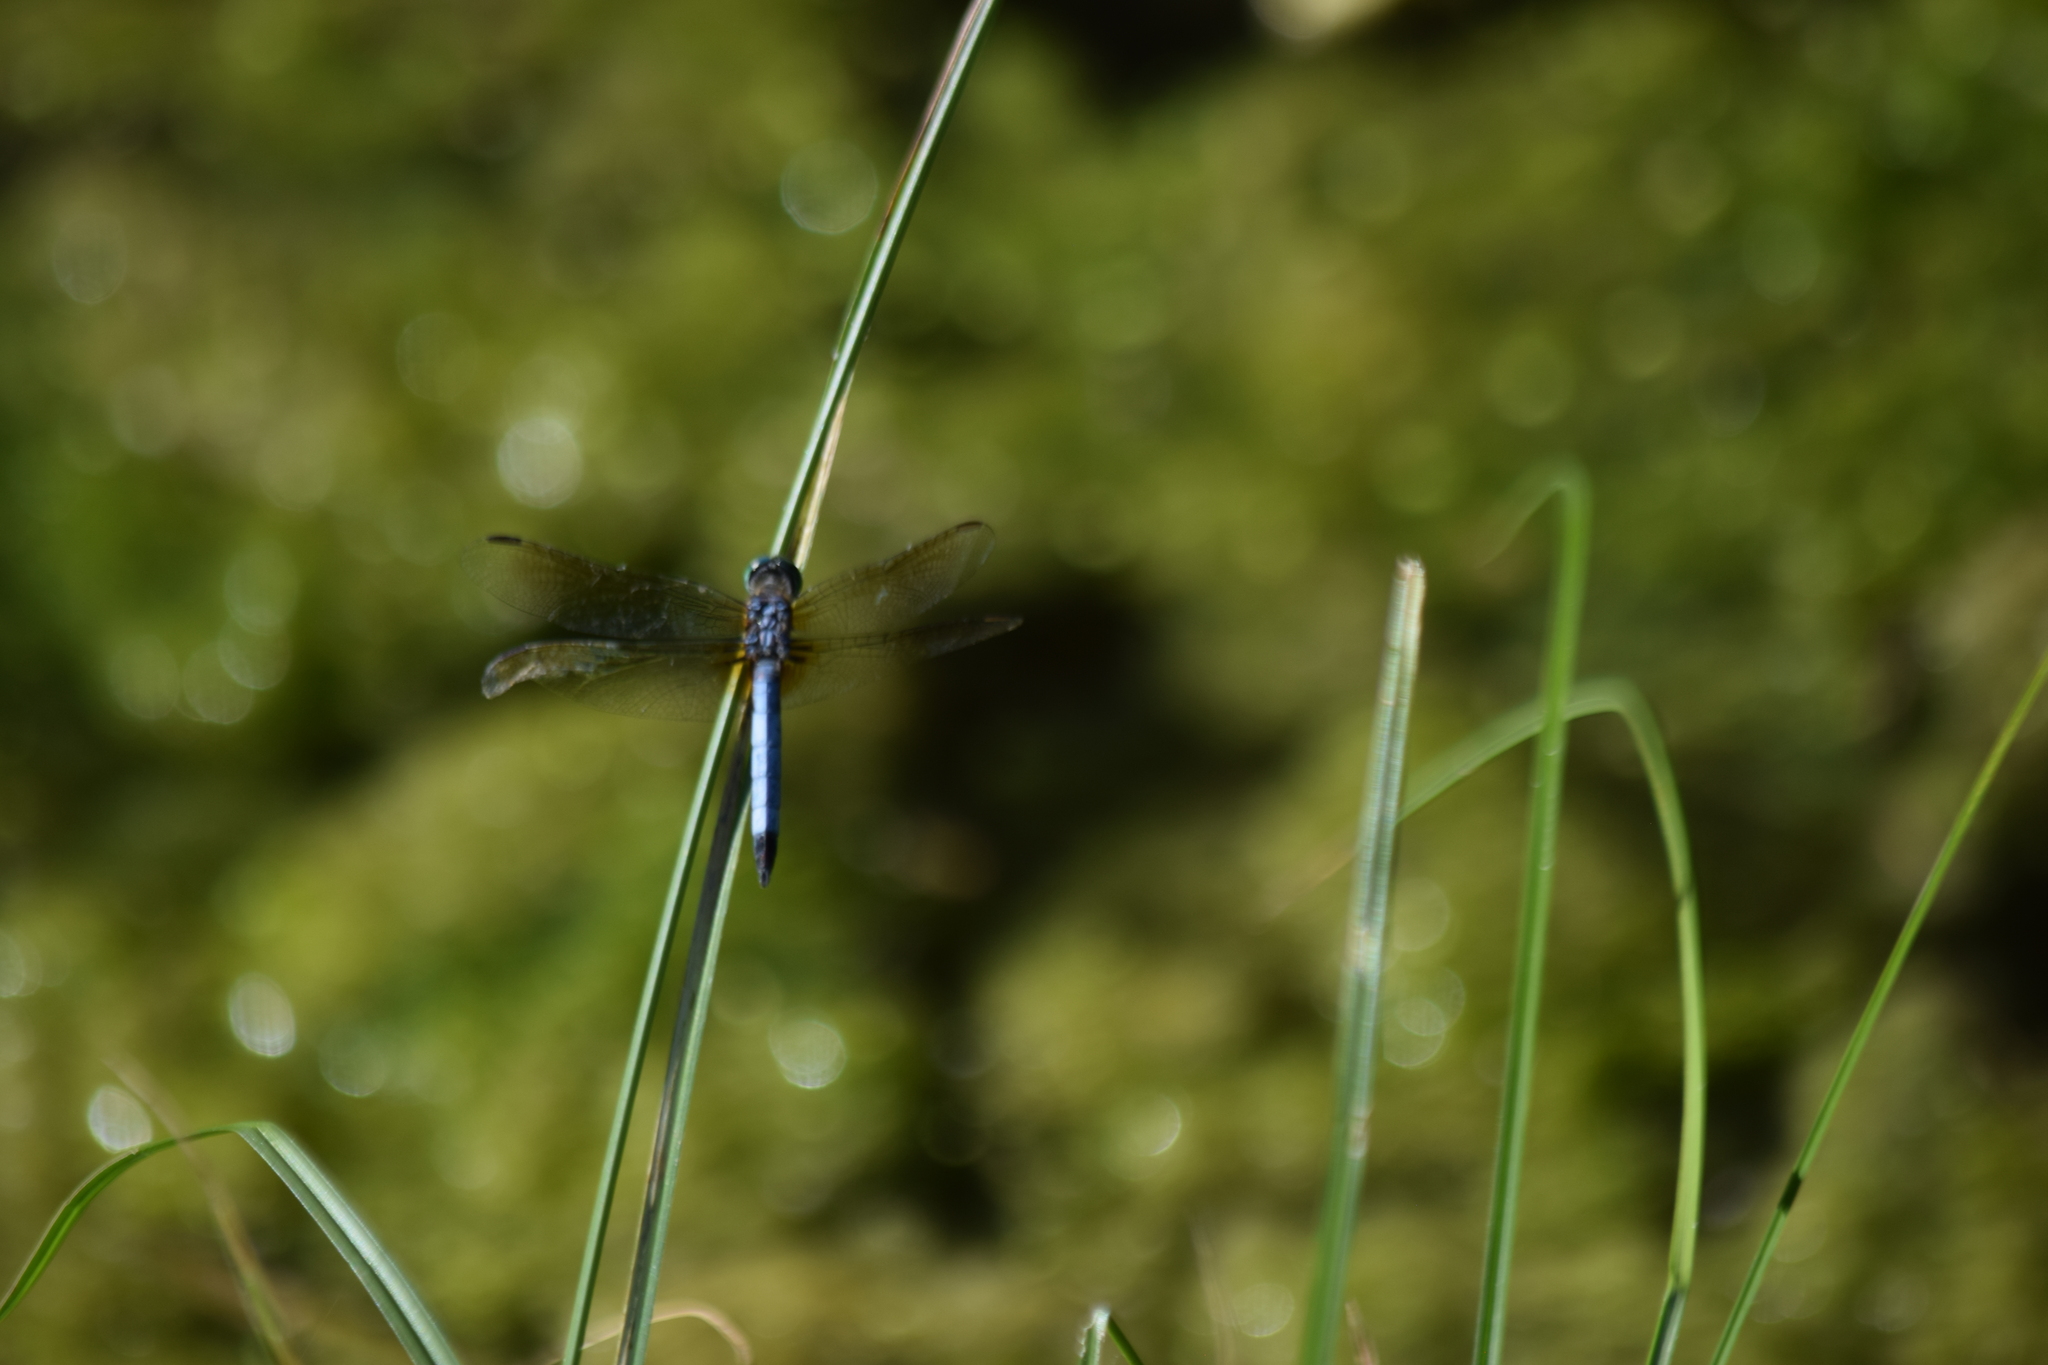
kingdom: Animalia
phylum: Arthropoda
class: Insecta
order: Odonata
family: Libellulidae
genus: Pachydiplax
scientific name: Pachydiplax longipennis
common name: Blue dasher
